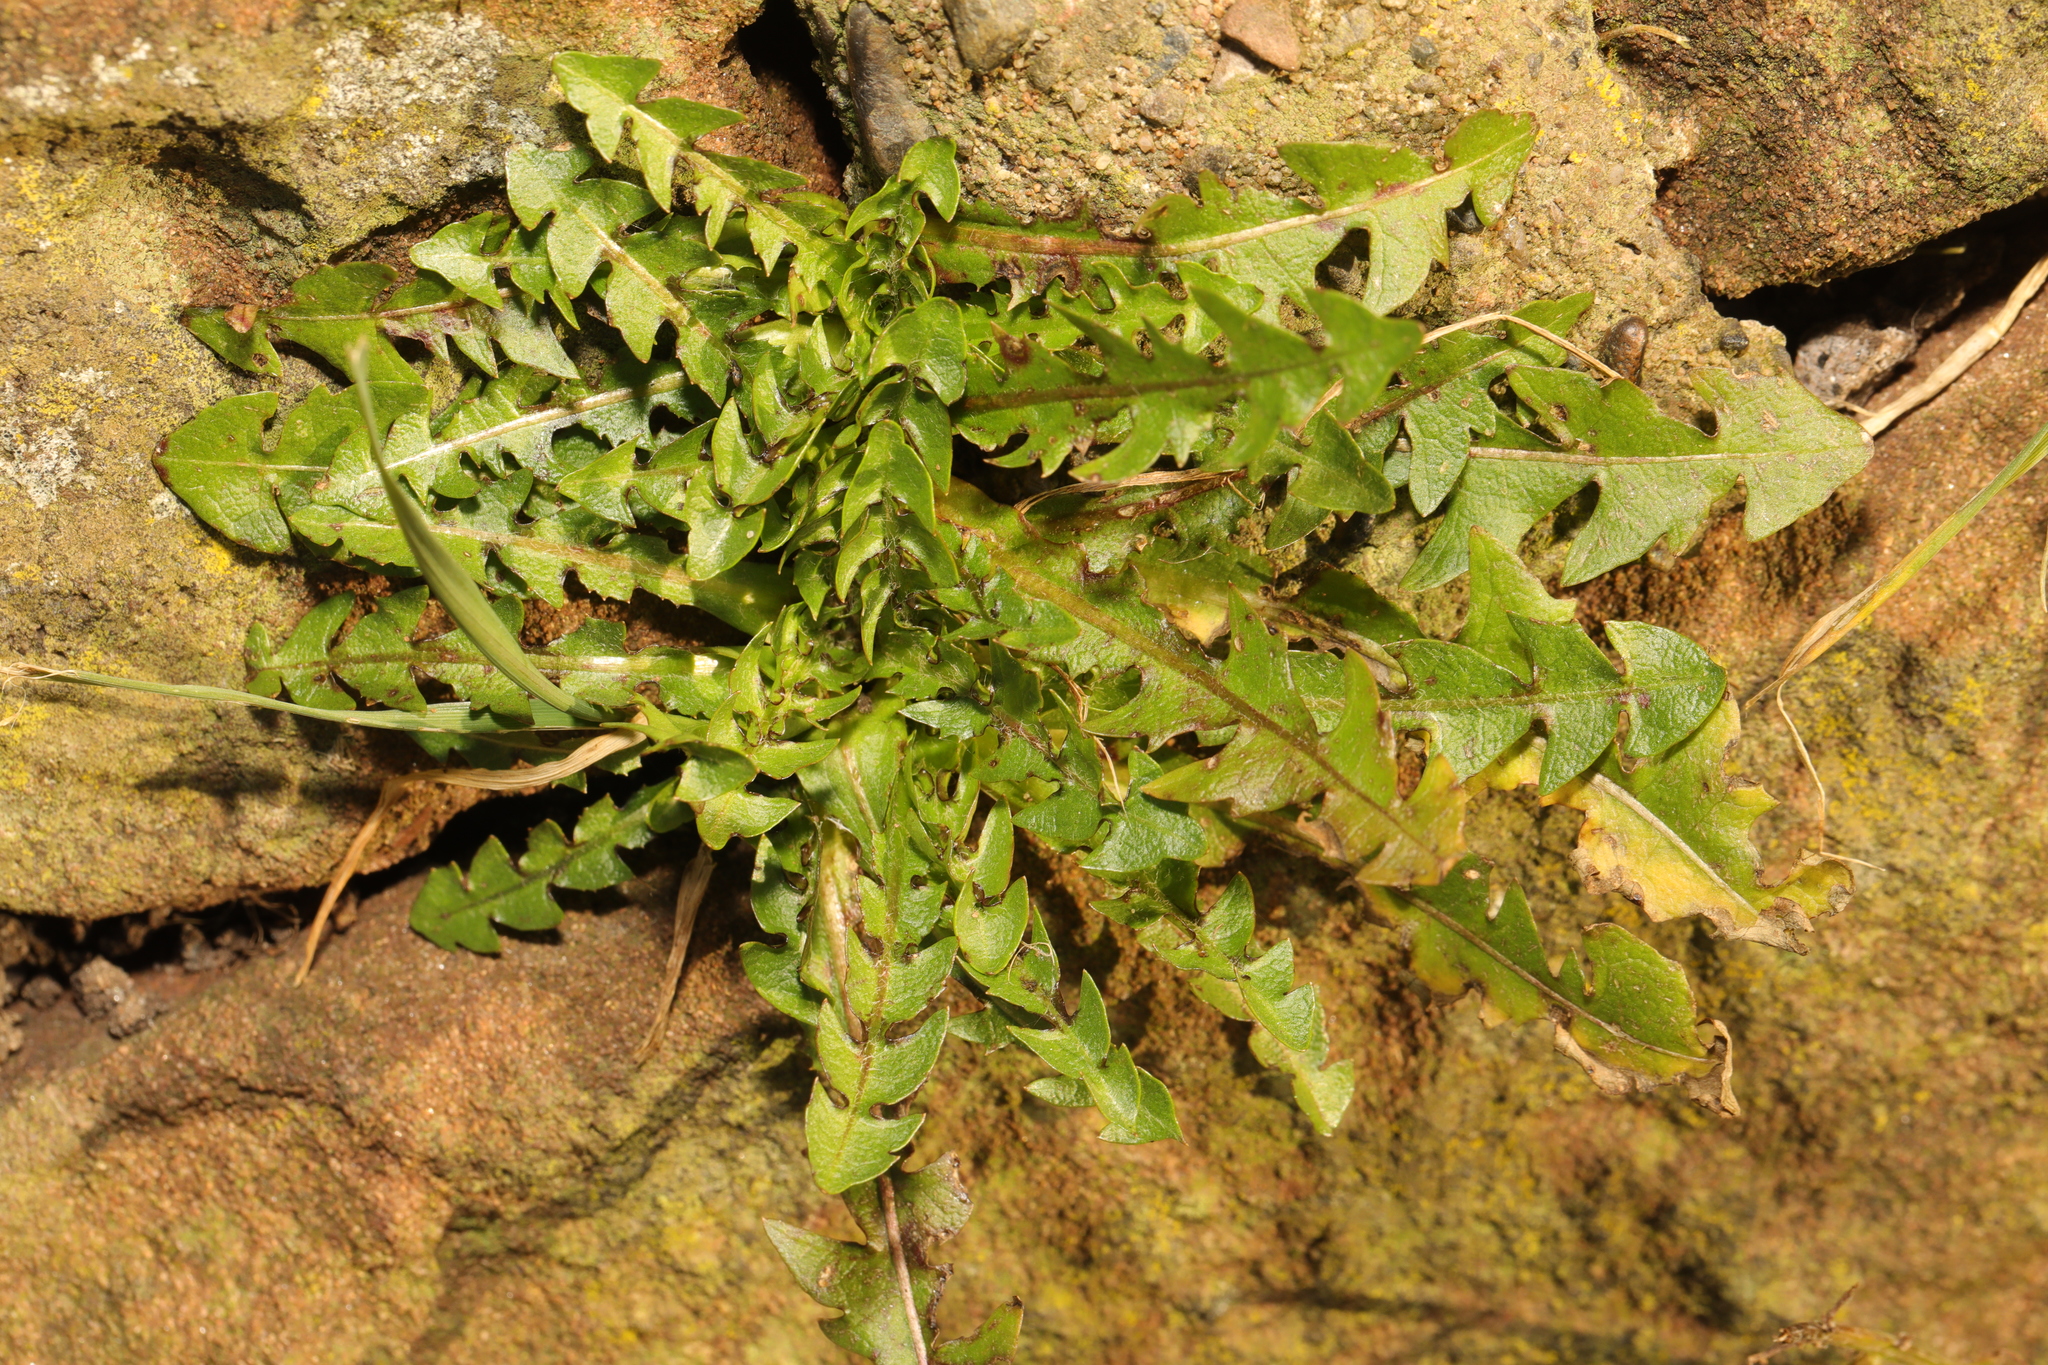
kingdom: Plantae
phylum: Tracheophyta
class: Magnoliopsida
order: Asterales
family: Asteraceae
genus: Taraxacum
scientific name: Taraxacum officinale
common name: Common dandelion
